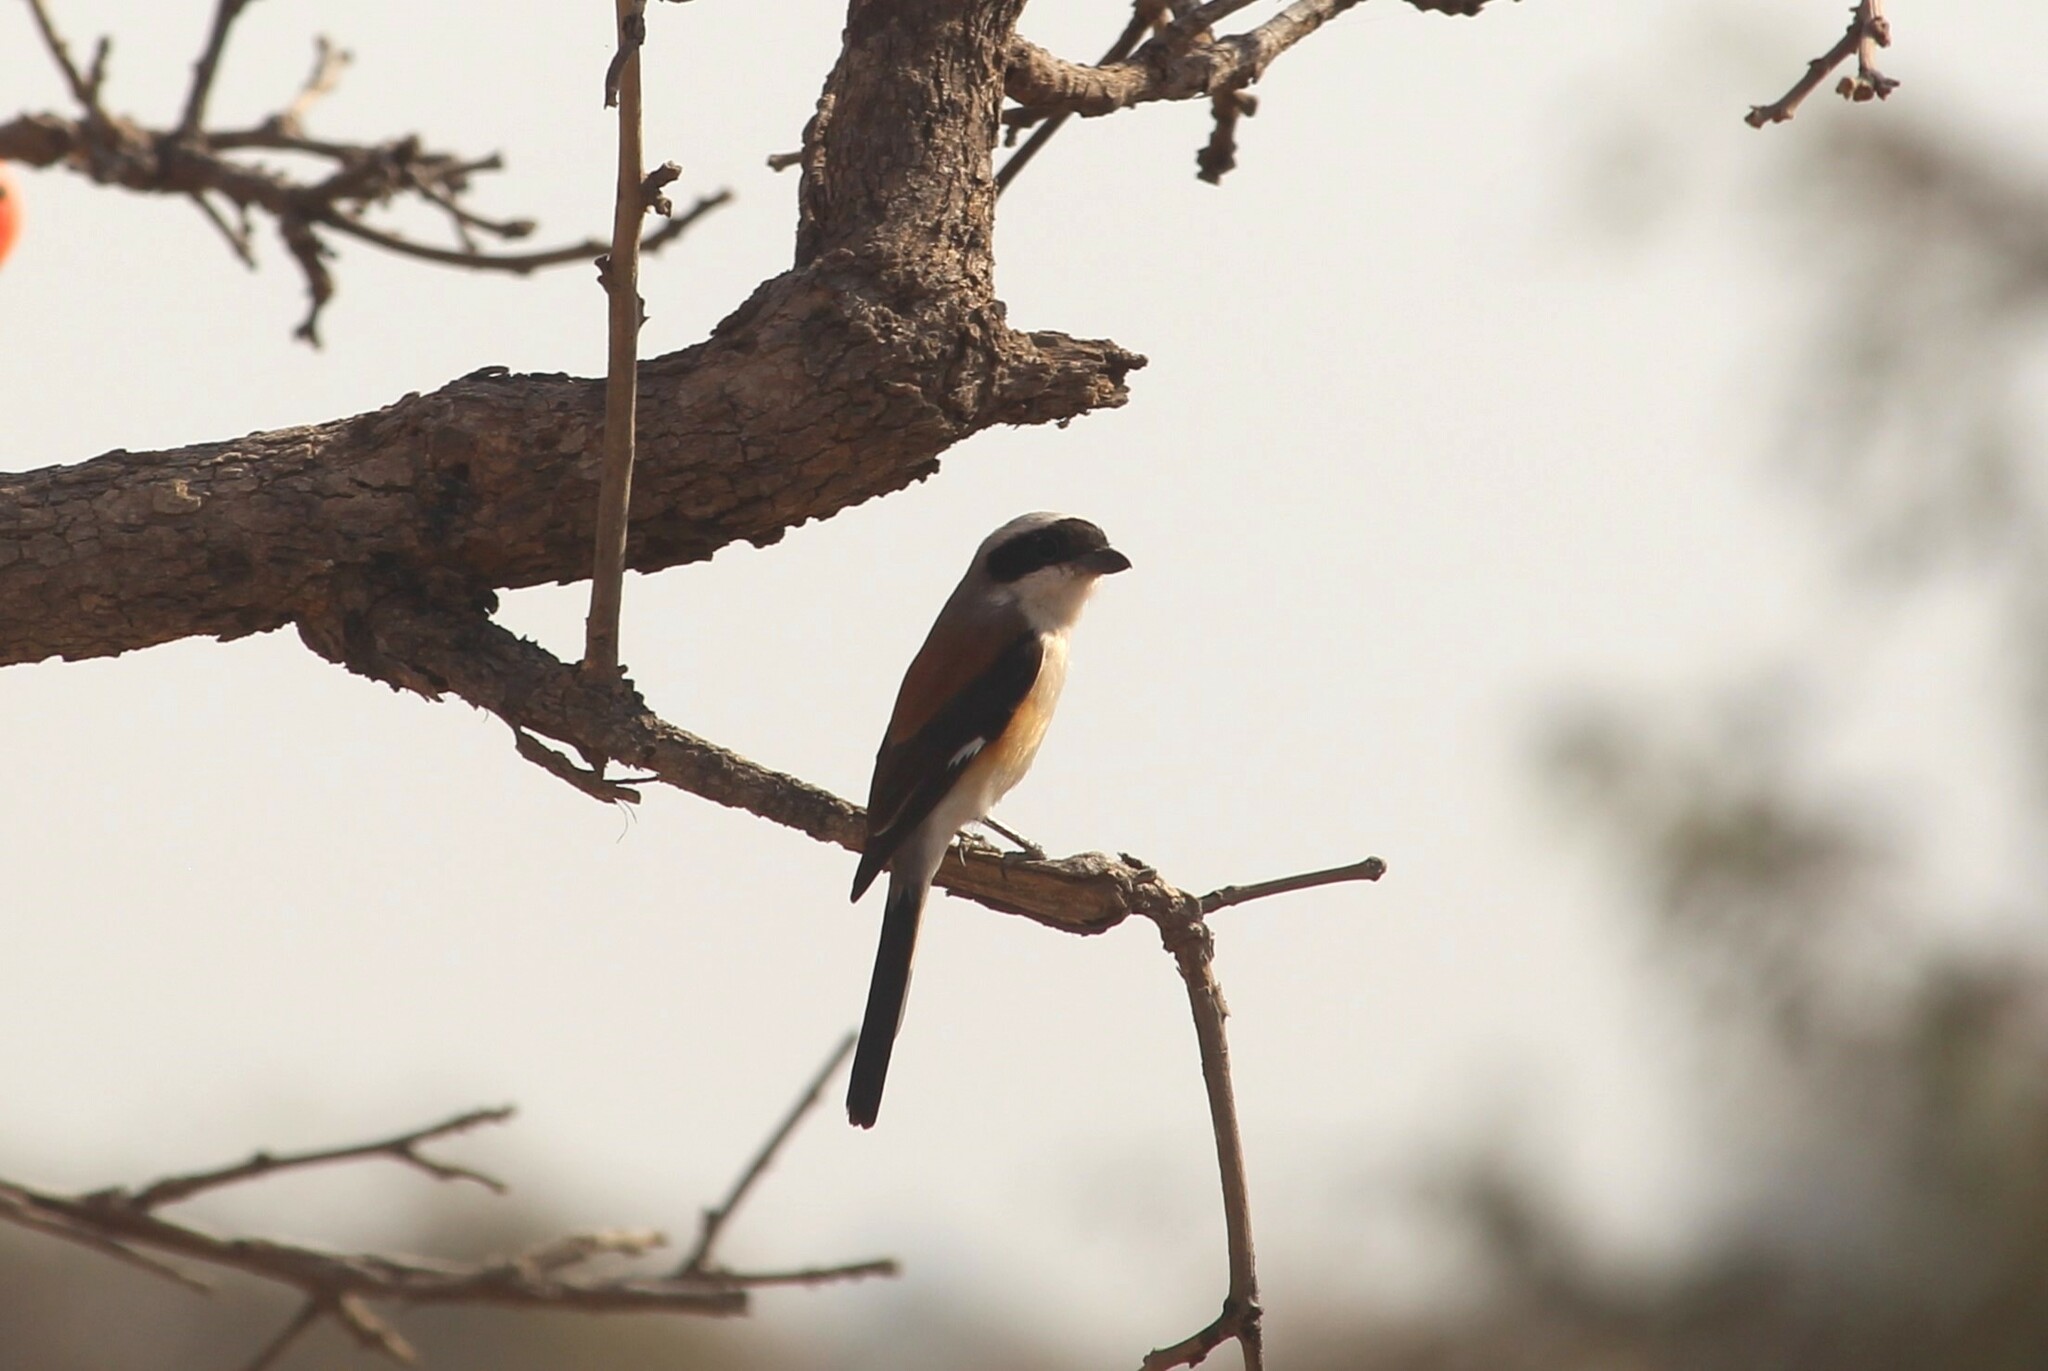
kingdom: Animalia
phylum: Chordata
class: Aves
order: Passeriformes
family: Laniidae
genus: Lanius
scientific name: Lanius vittatus
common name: Bay-backed shrike
